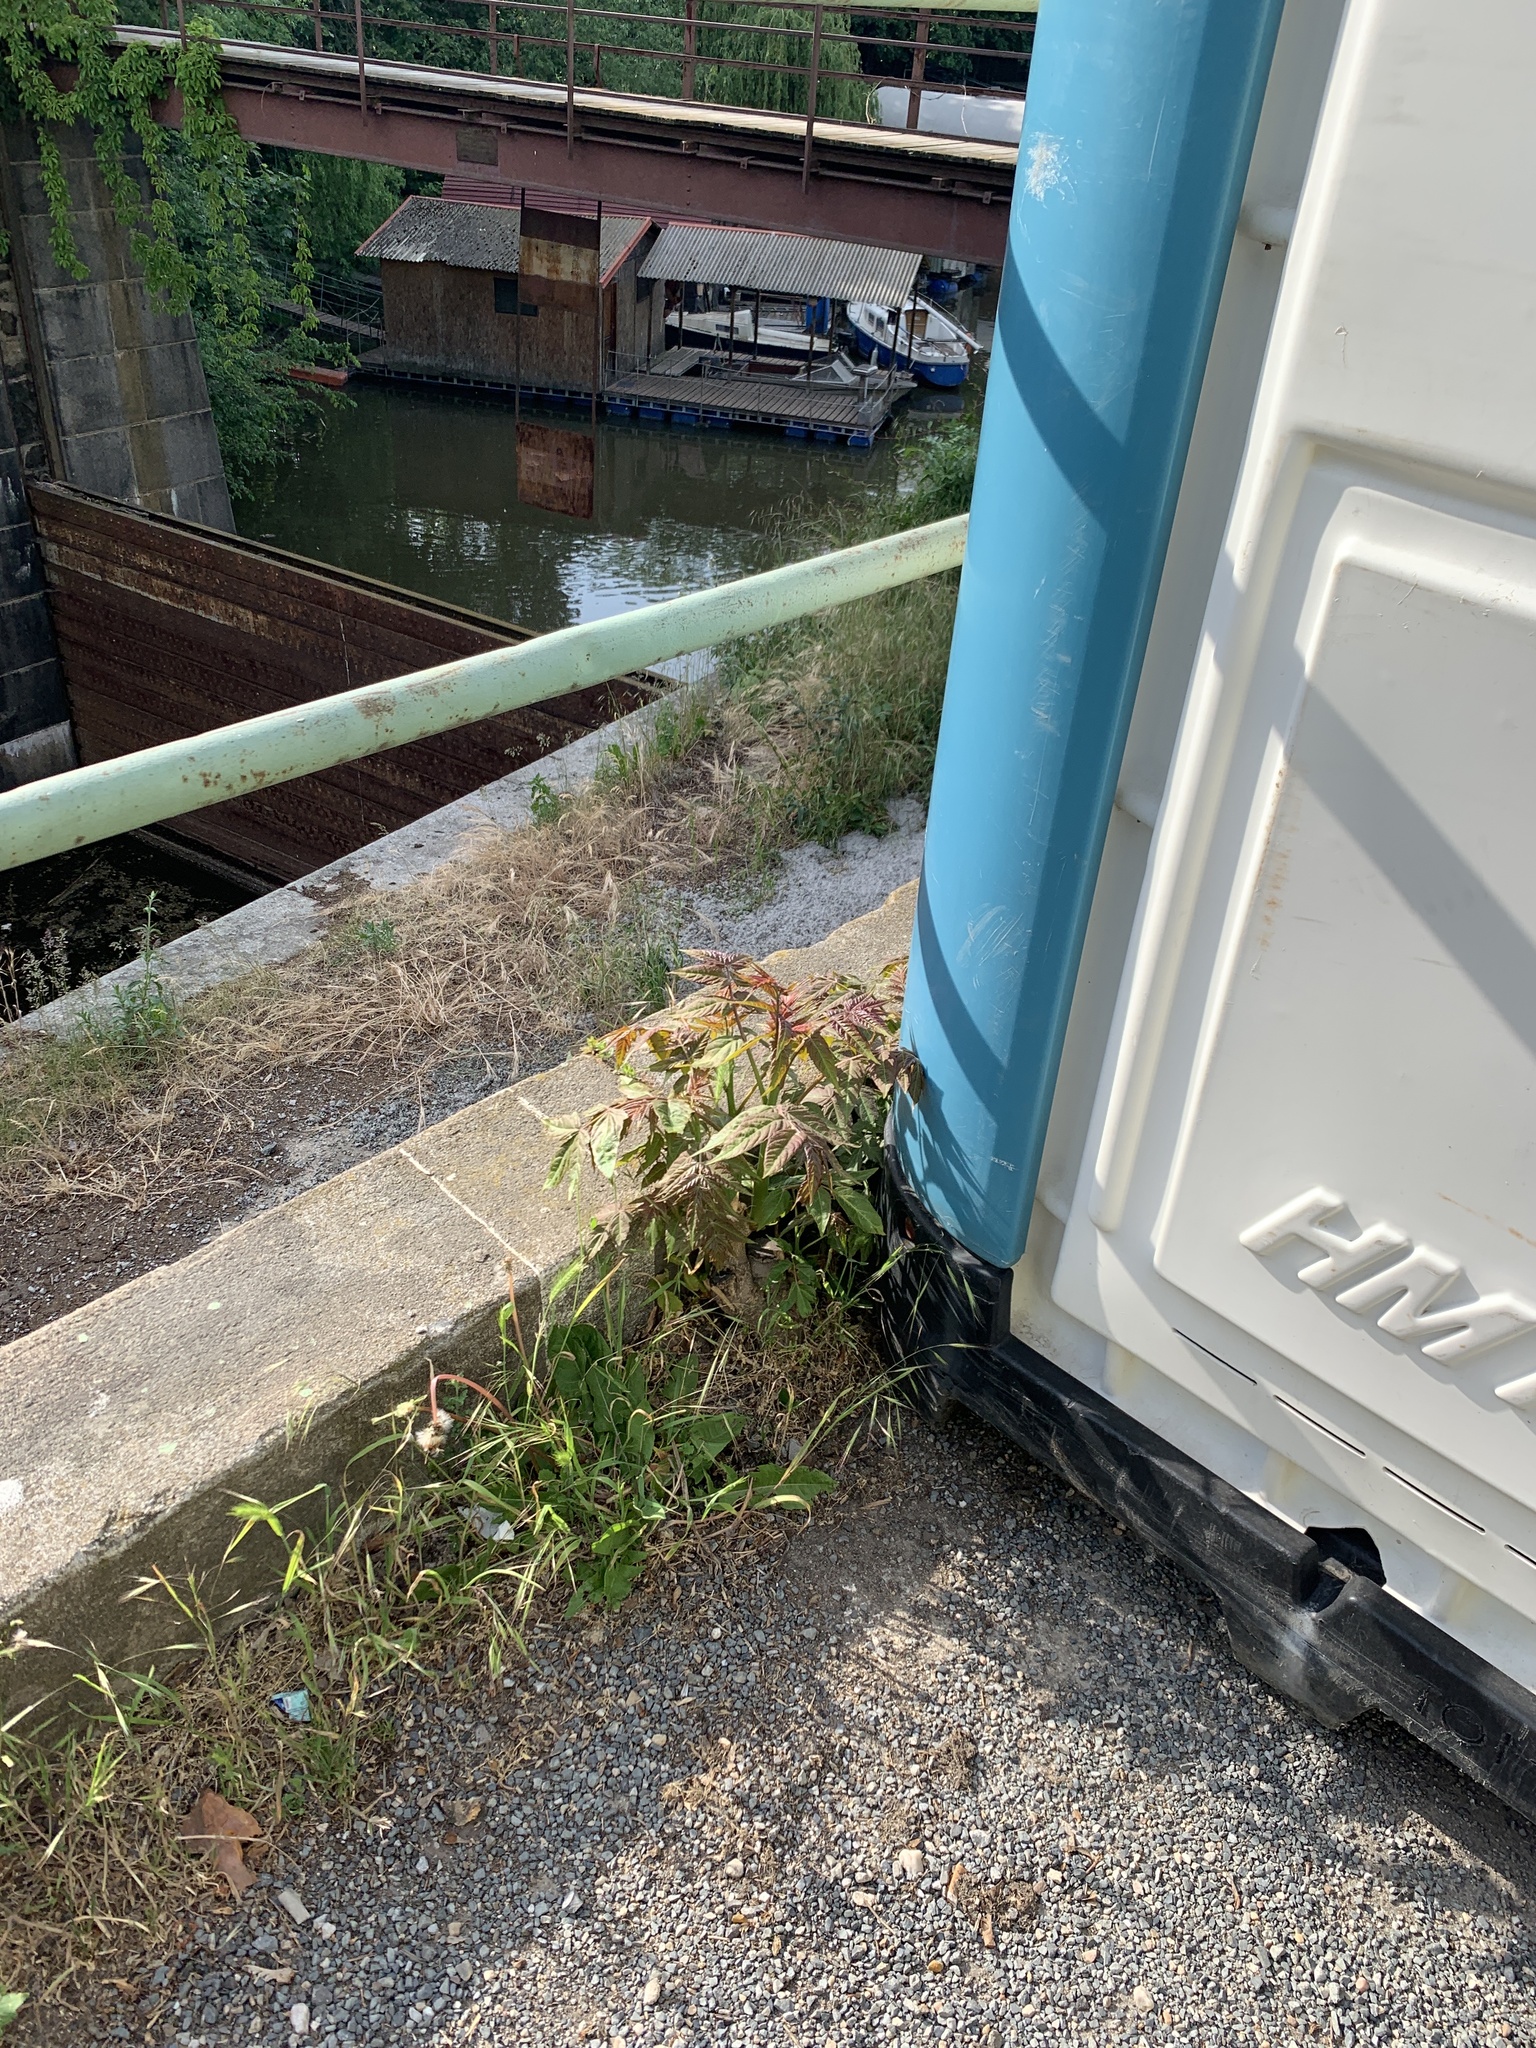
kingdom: Plantae
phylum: Tracheophyta
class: Magnoliopsida
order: Sapindales
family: Simaroubaceae
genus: Ailanthus
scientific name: Ailanthus altissima
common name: Tree-of-heaven
